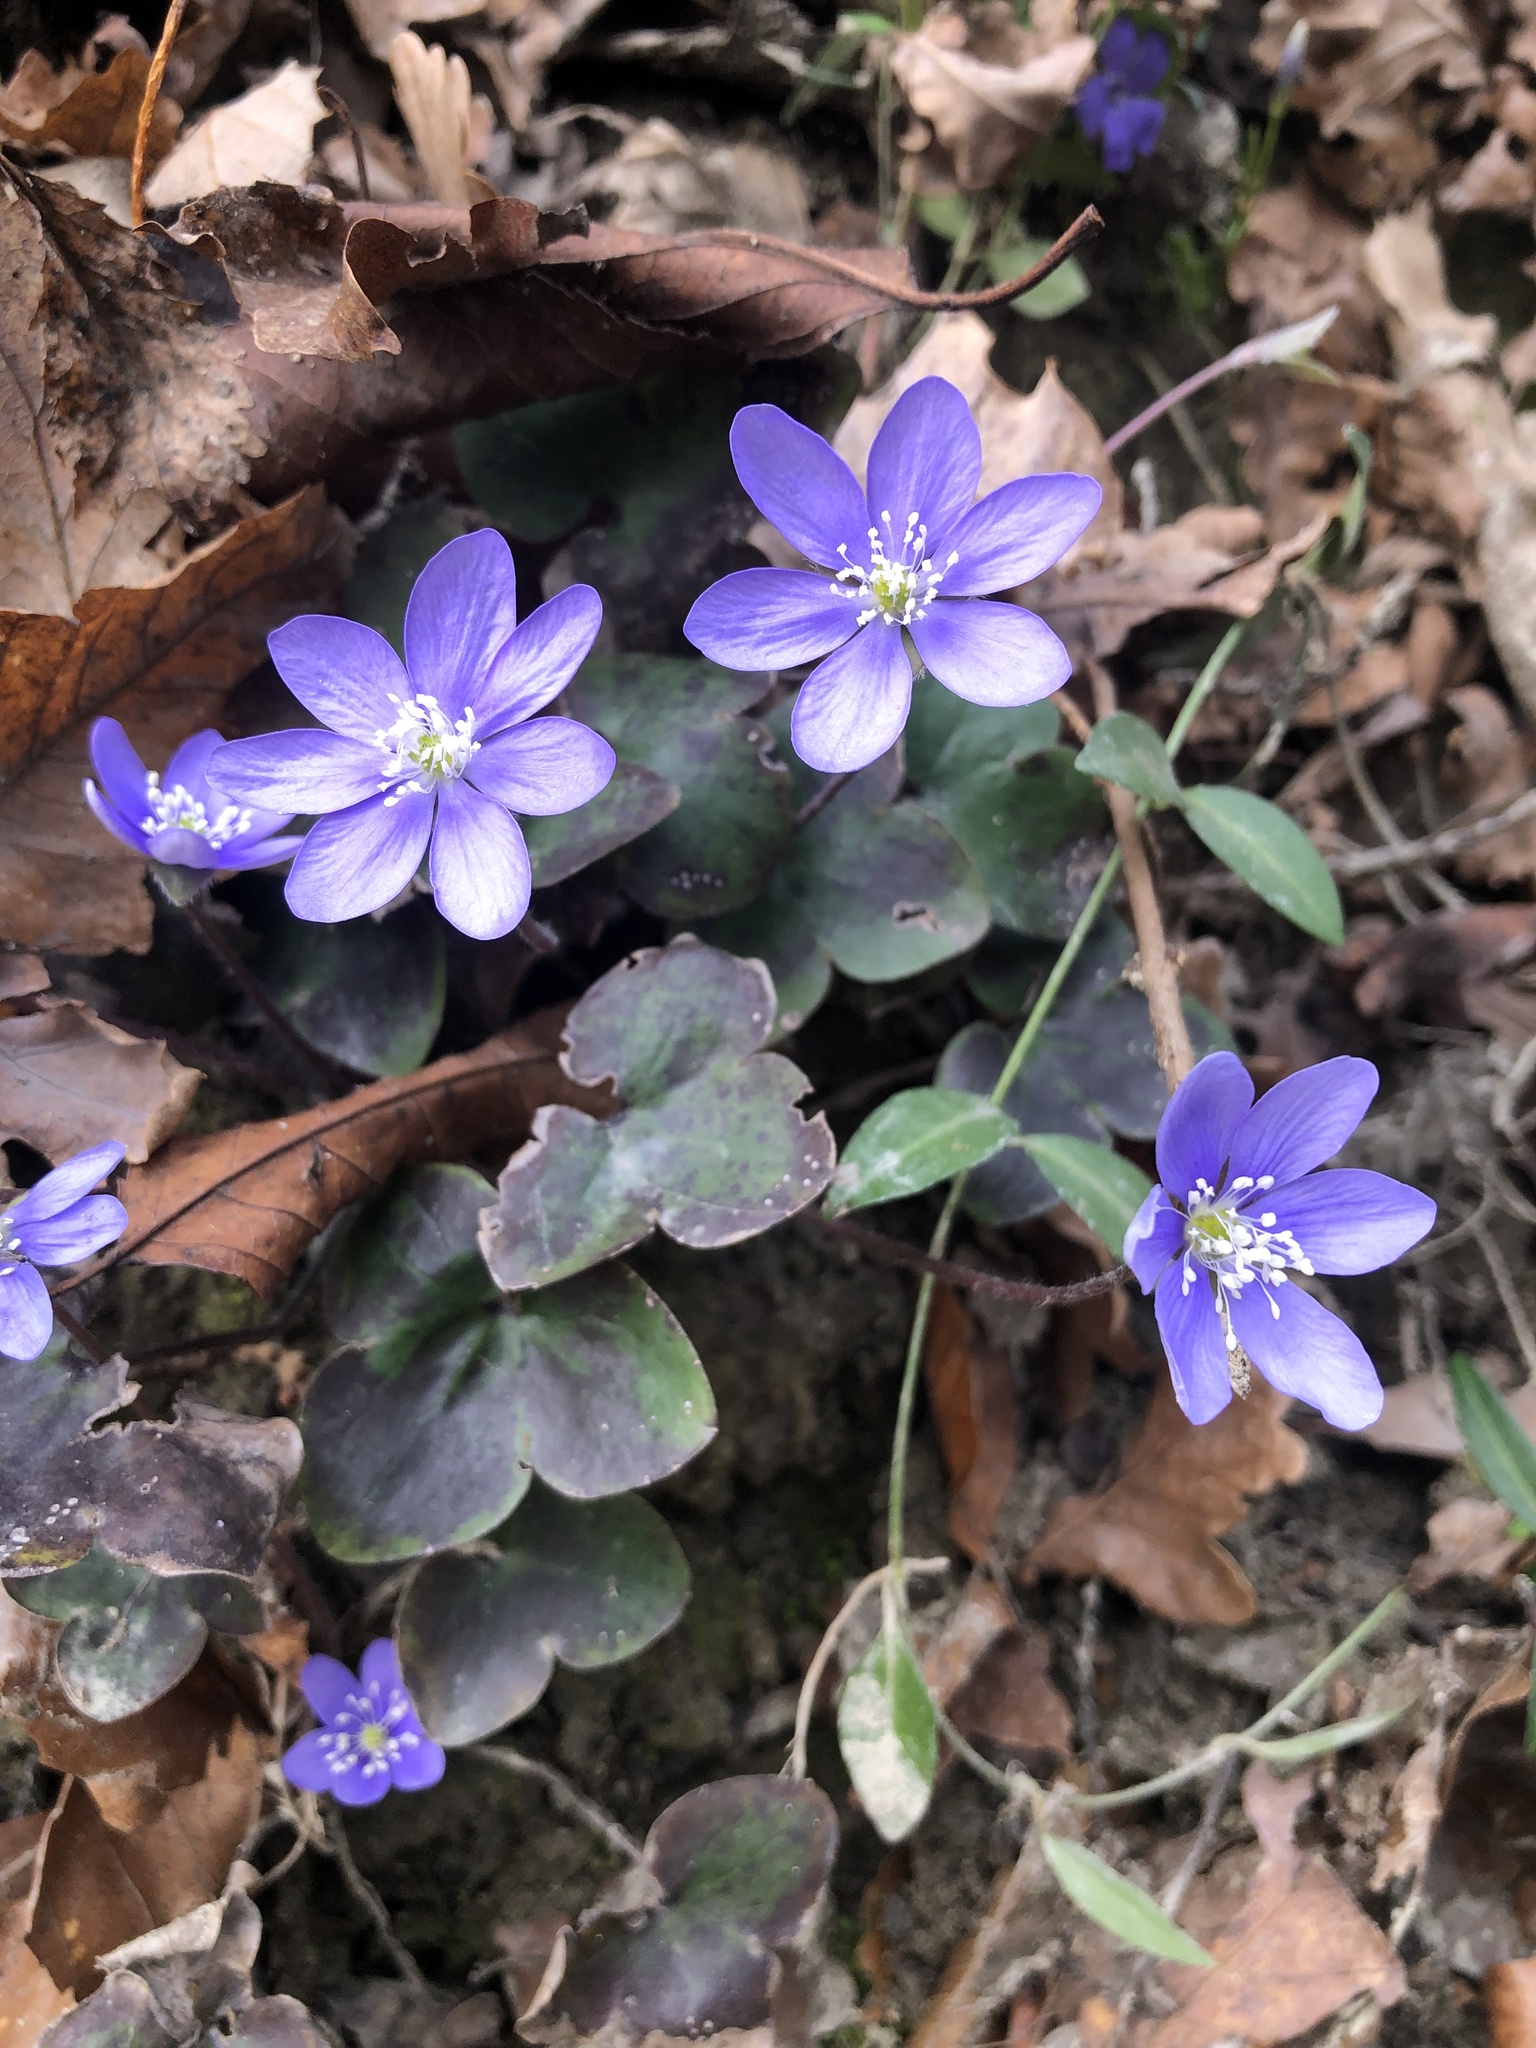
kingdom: Plantae
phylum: Tracheophyta
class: Magnoliopsida
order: Ranunculales
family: Ranunculaceae
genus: Hepatica
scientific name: Hepatica nobilis
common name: Liverleaf
